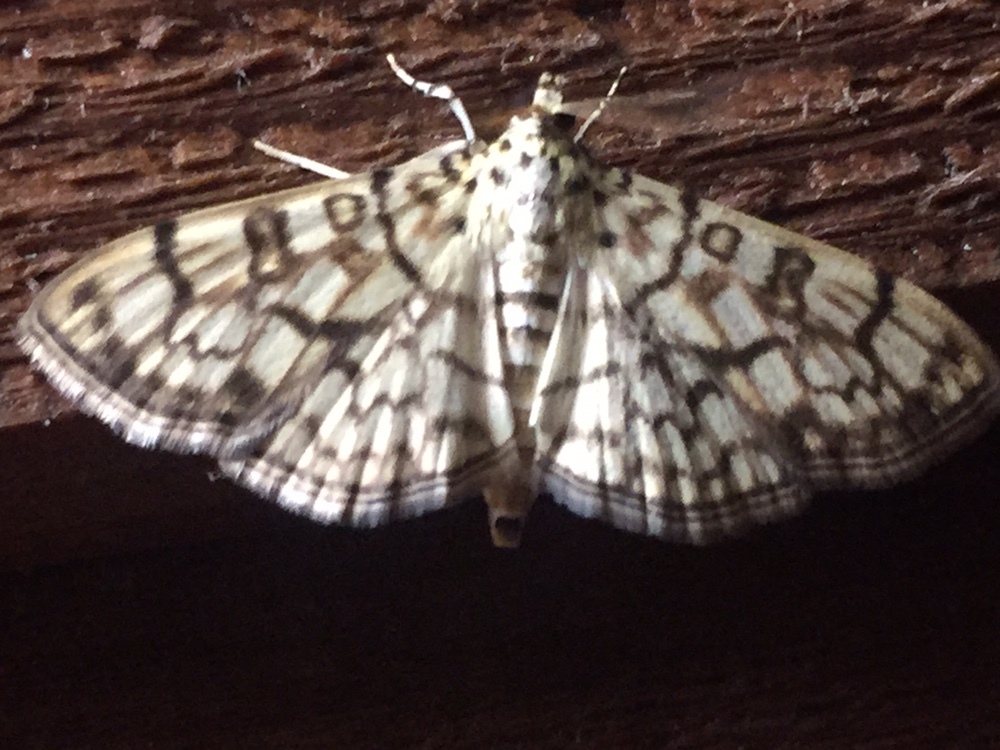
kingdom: Animalia
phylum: Arthropoda
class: Insecta
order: Lepidoptera
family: Crambidae
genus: Haritalodes
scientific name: Haritalodes derogata
